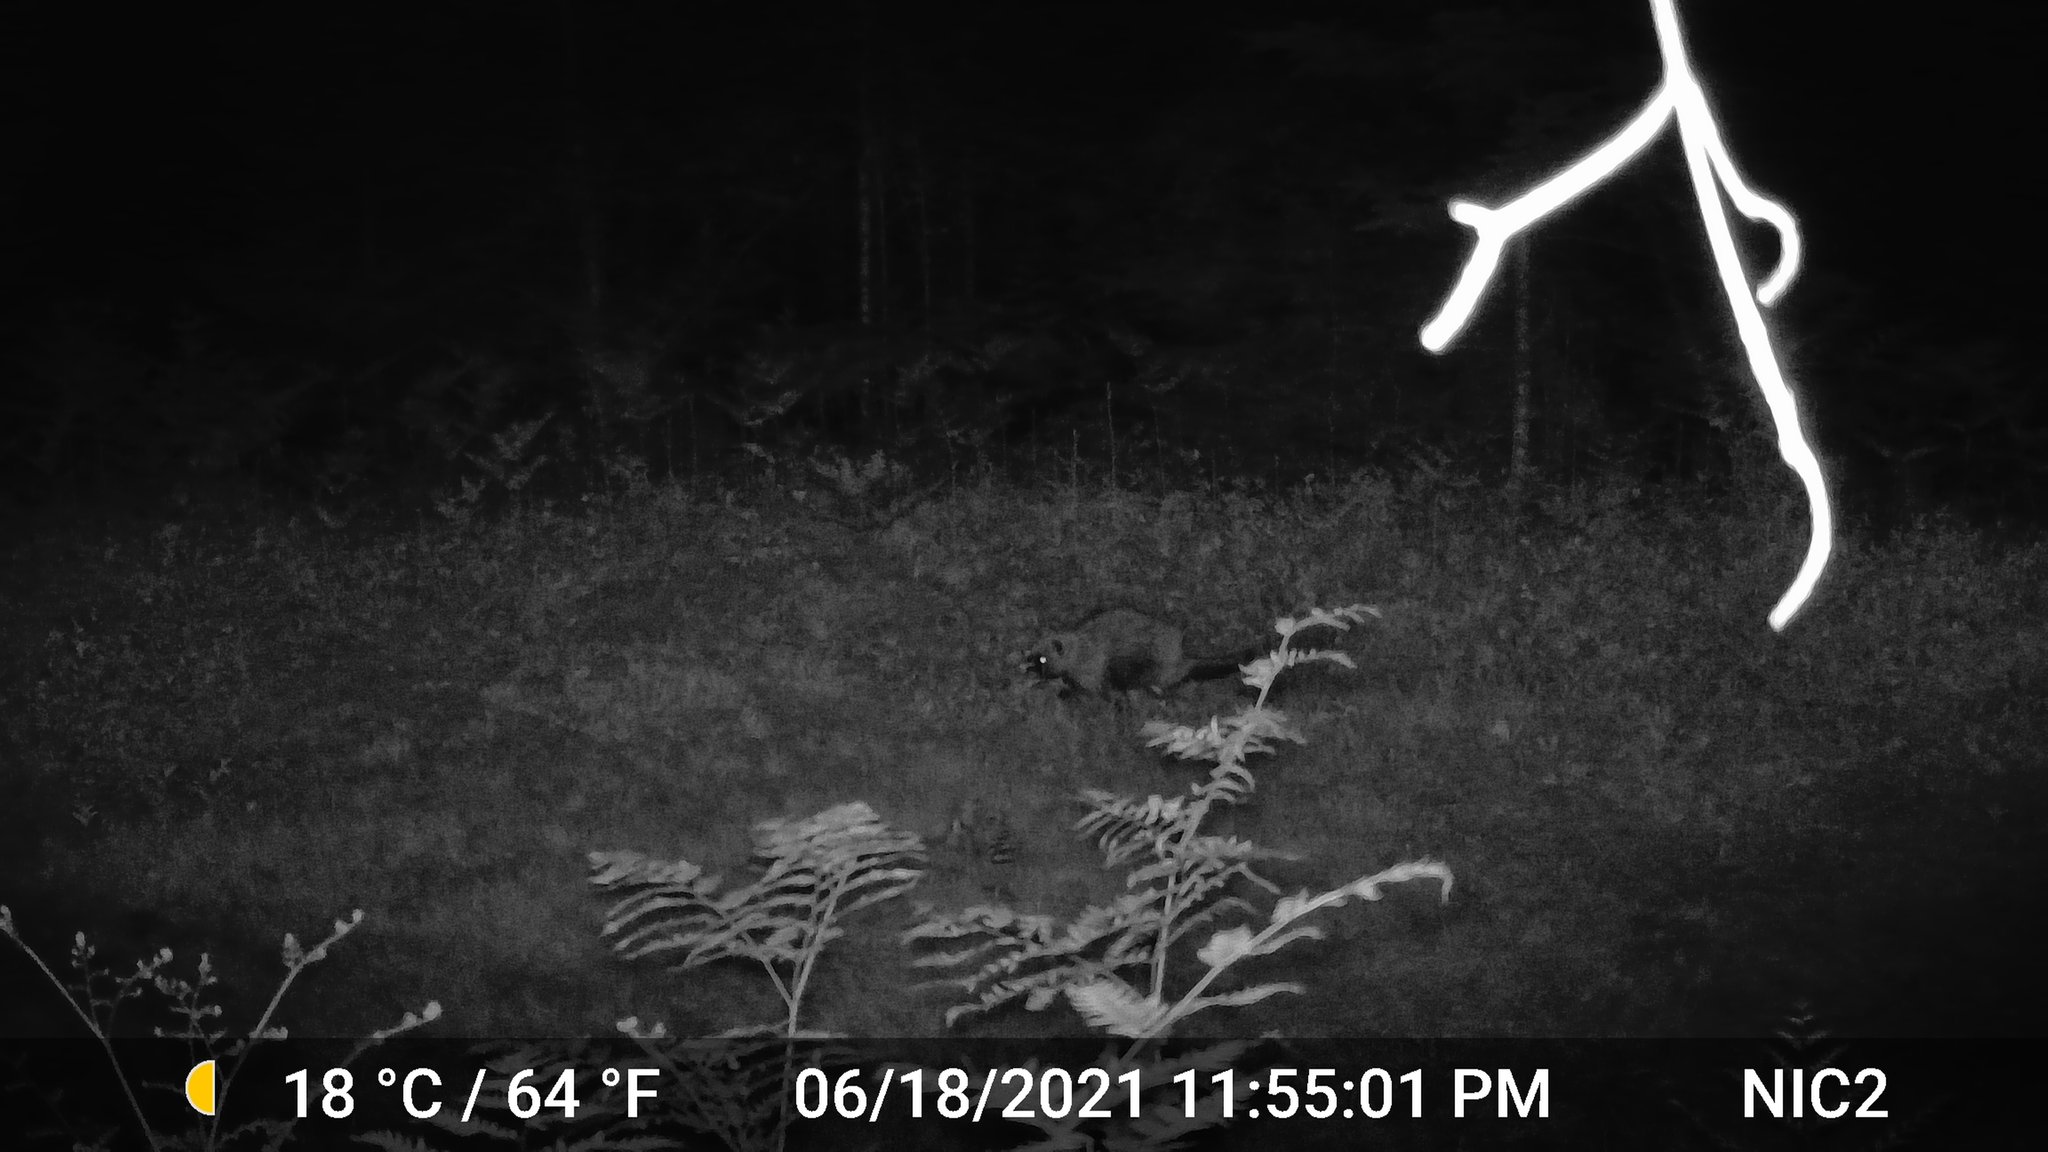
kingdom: Animalia
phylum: Chordata
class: Mammalia
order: Rodentia
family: Erethizontidae
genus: Erethizon
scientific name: Erethizon dorsatus
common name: North american porcupine
